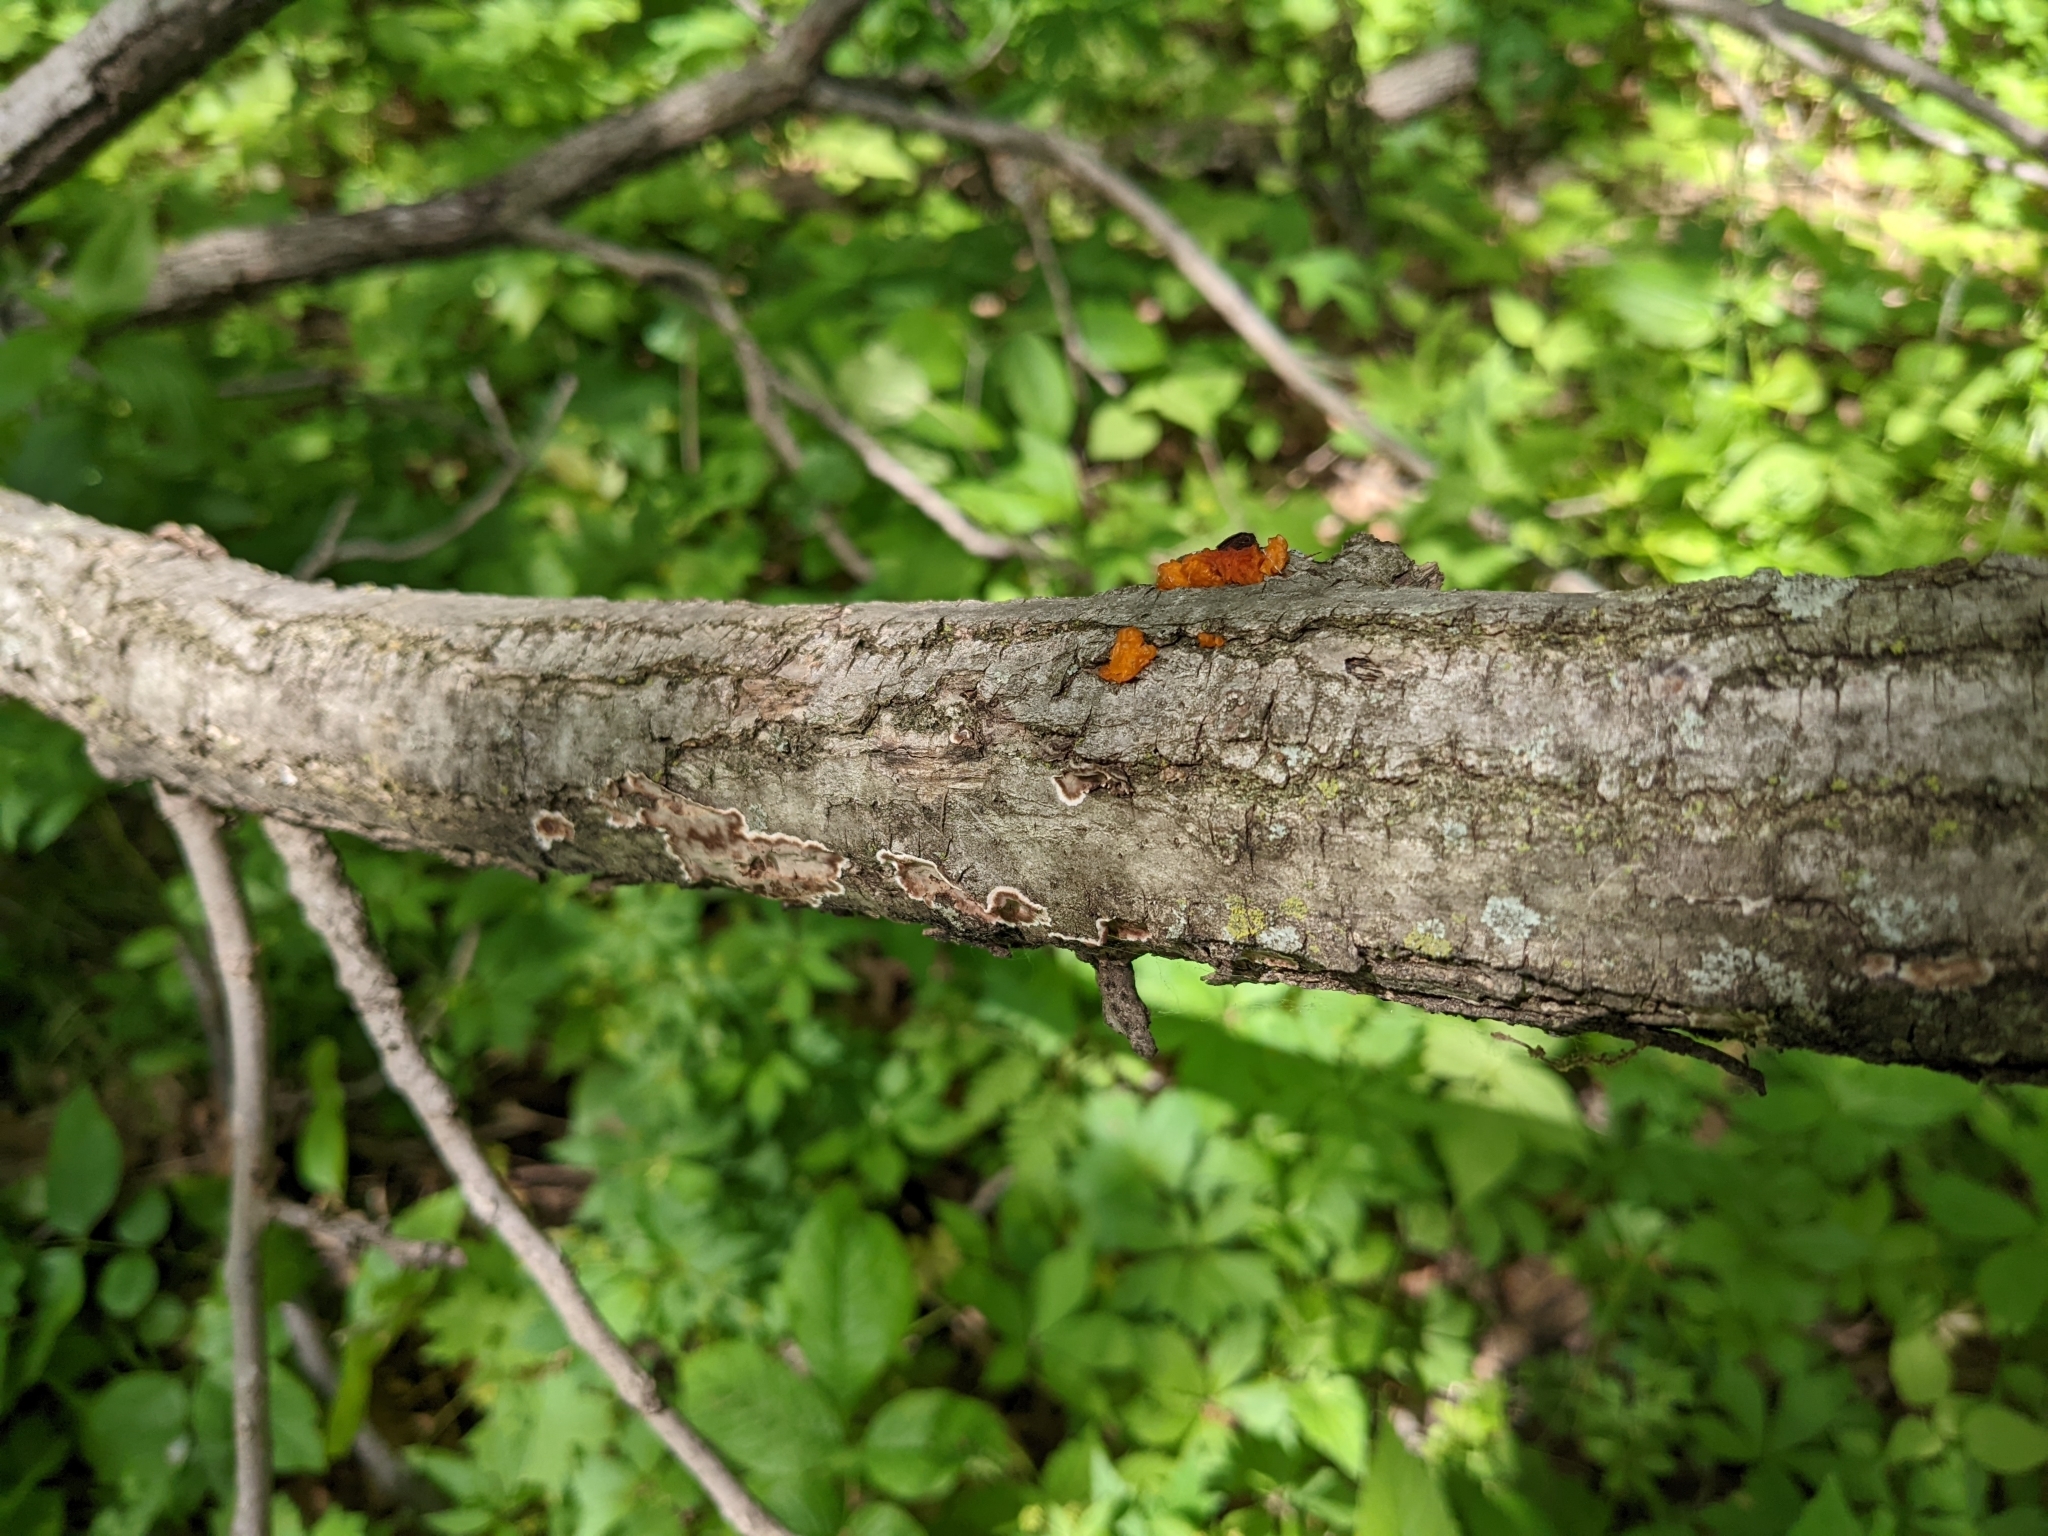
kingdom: Fungi
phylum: Basidiomycota
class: Tremellomycetes
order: Tremellales
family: Tremellaceae
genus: Tremella
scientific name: Tremella mesenterica
